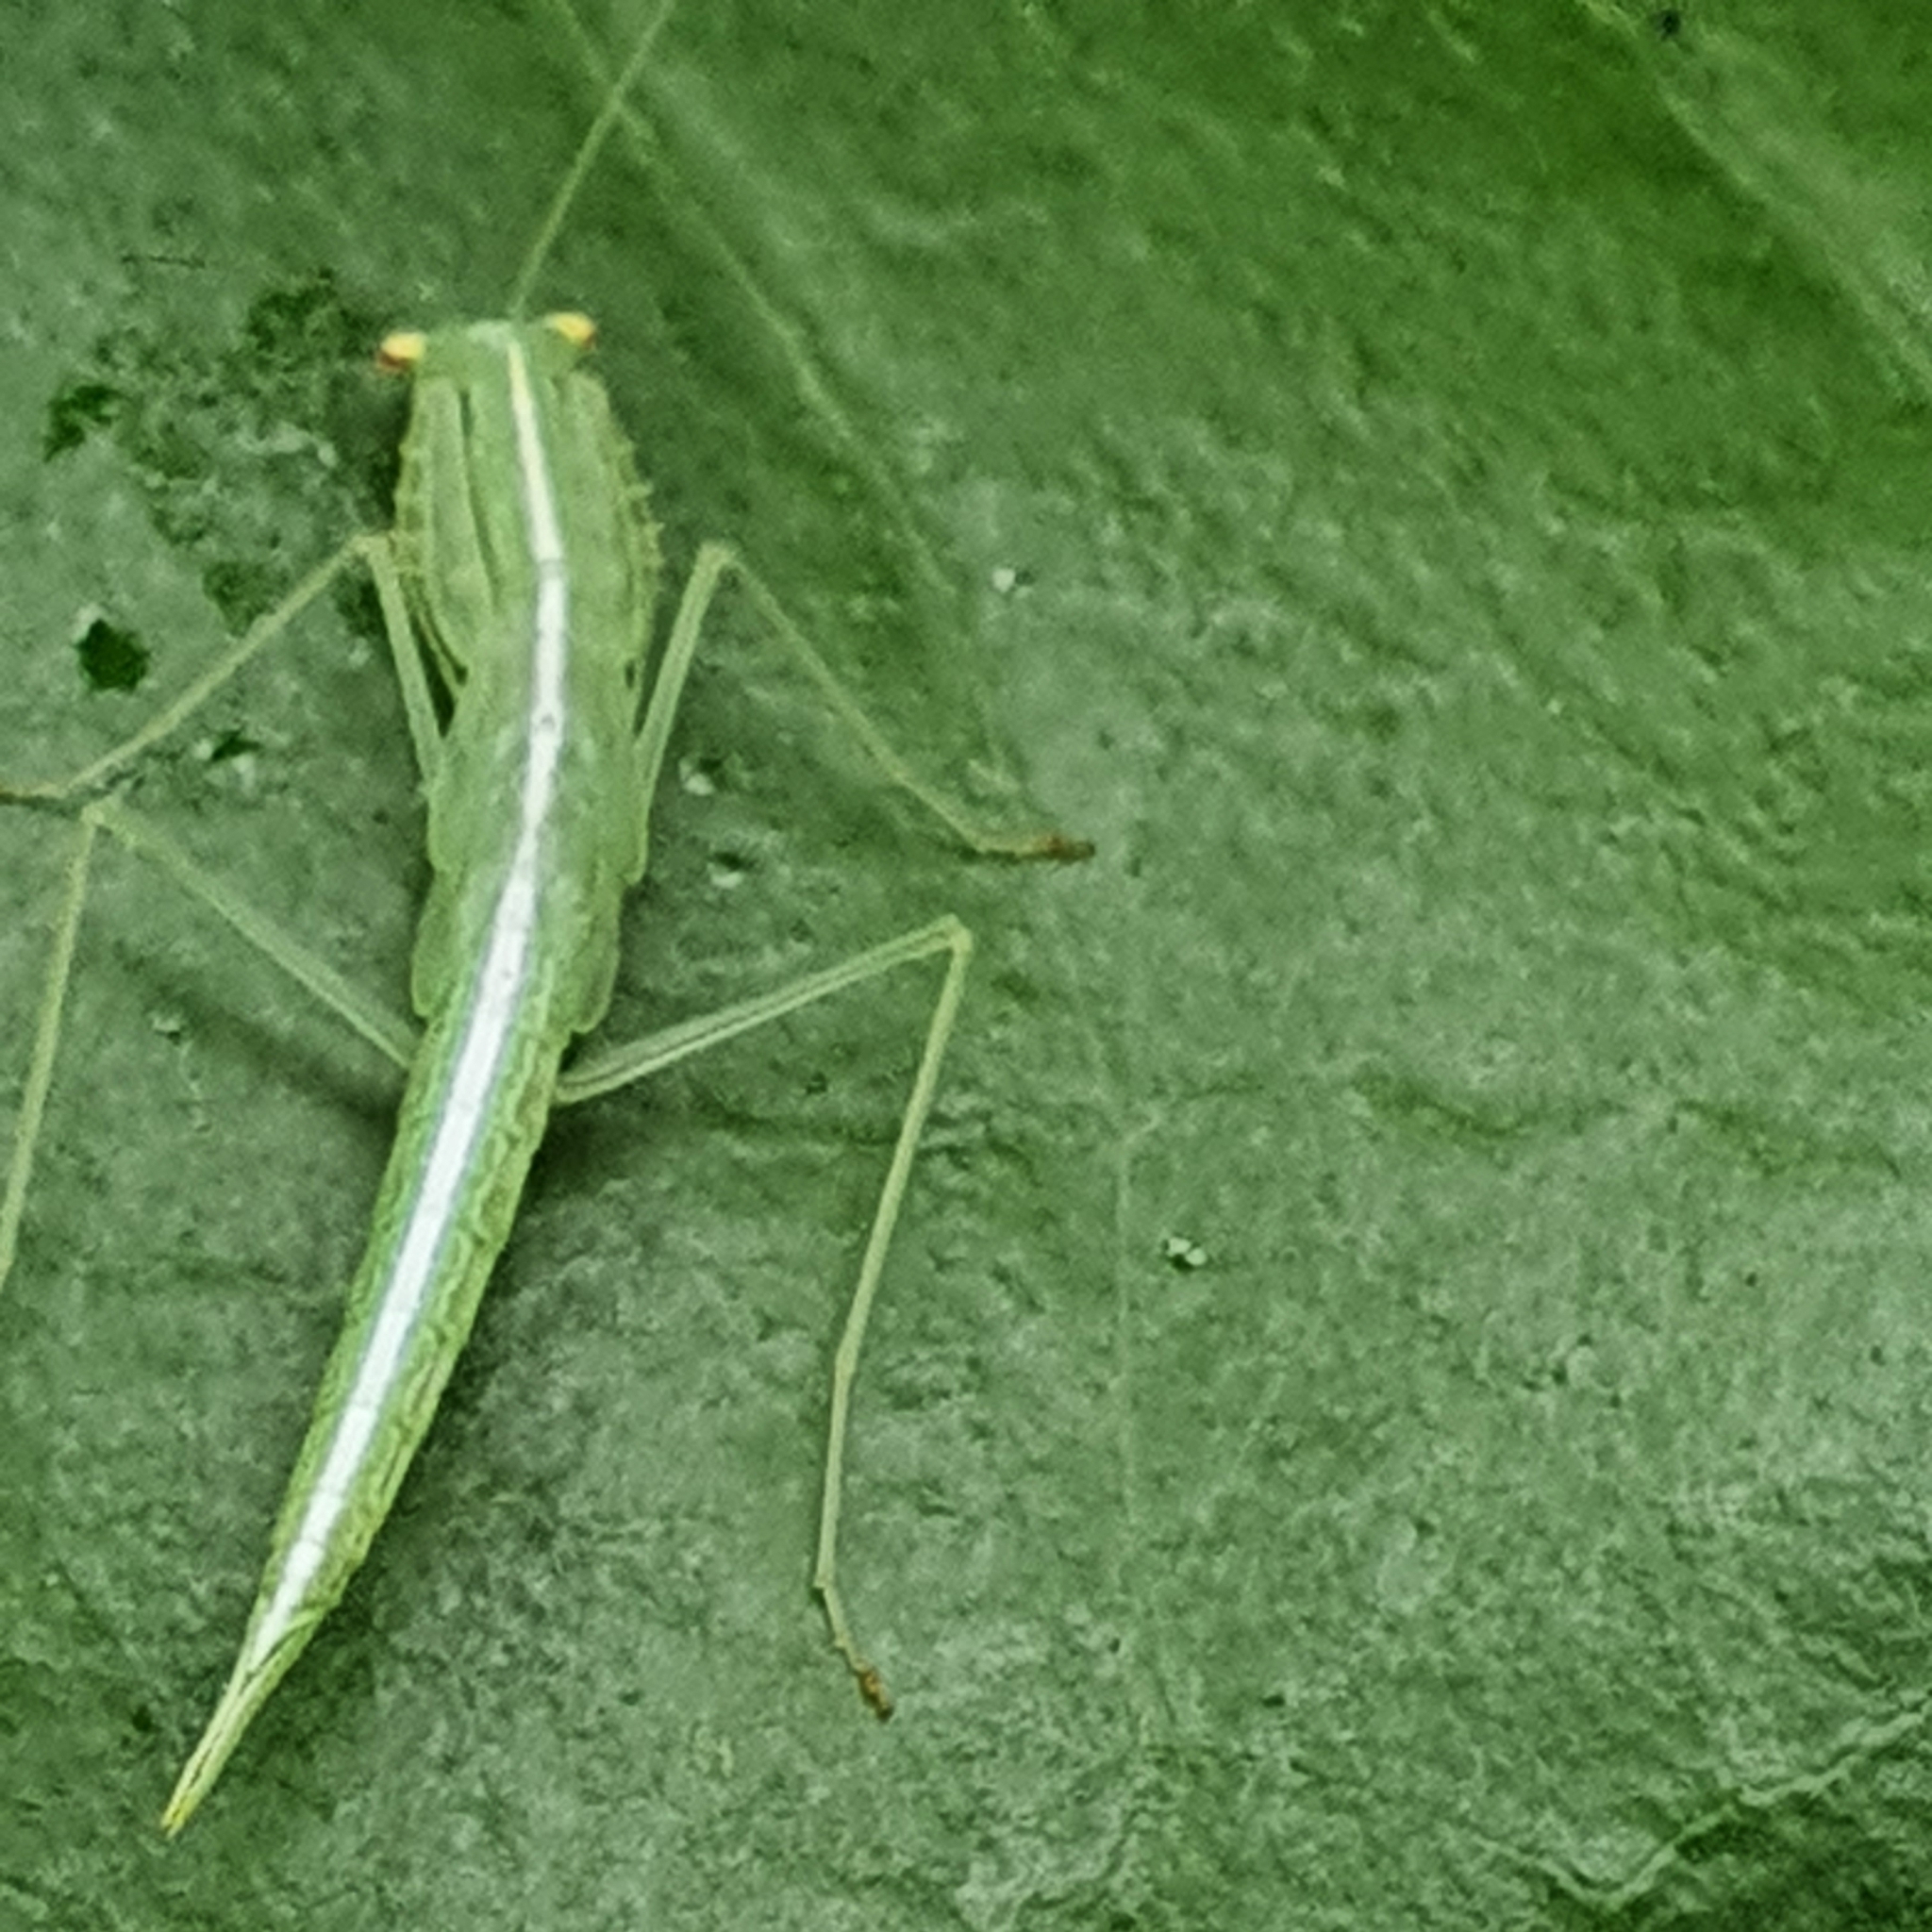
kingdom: Animalia
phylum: Arthropoda
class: Insecta
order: Mantodea
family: Nanomantidae
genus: Kongobatha
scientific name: Kongobatha diademata
